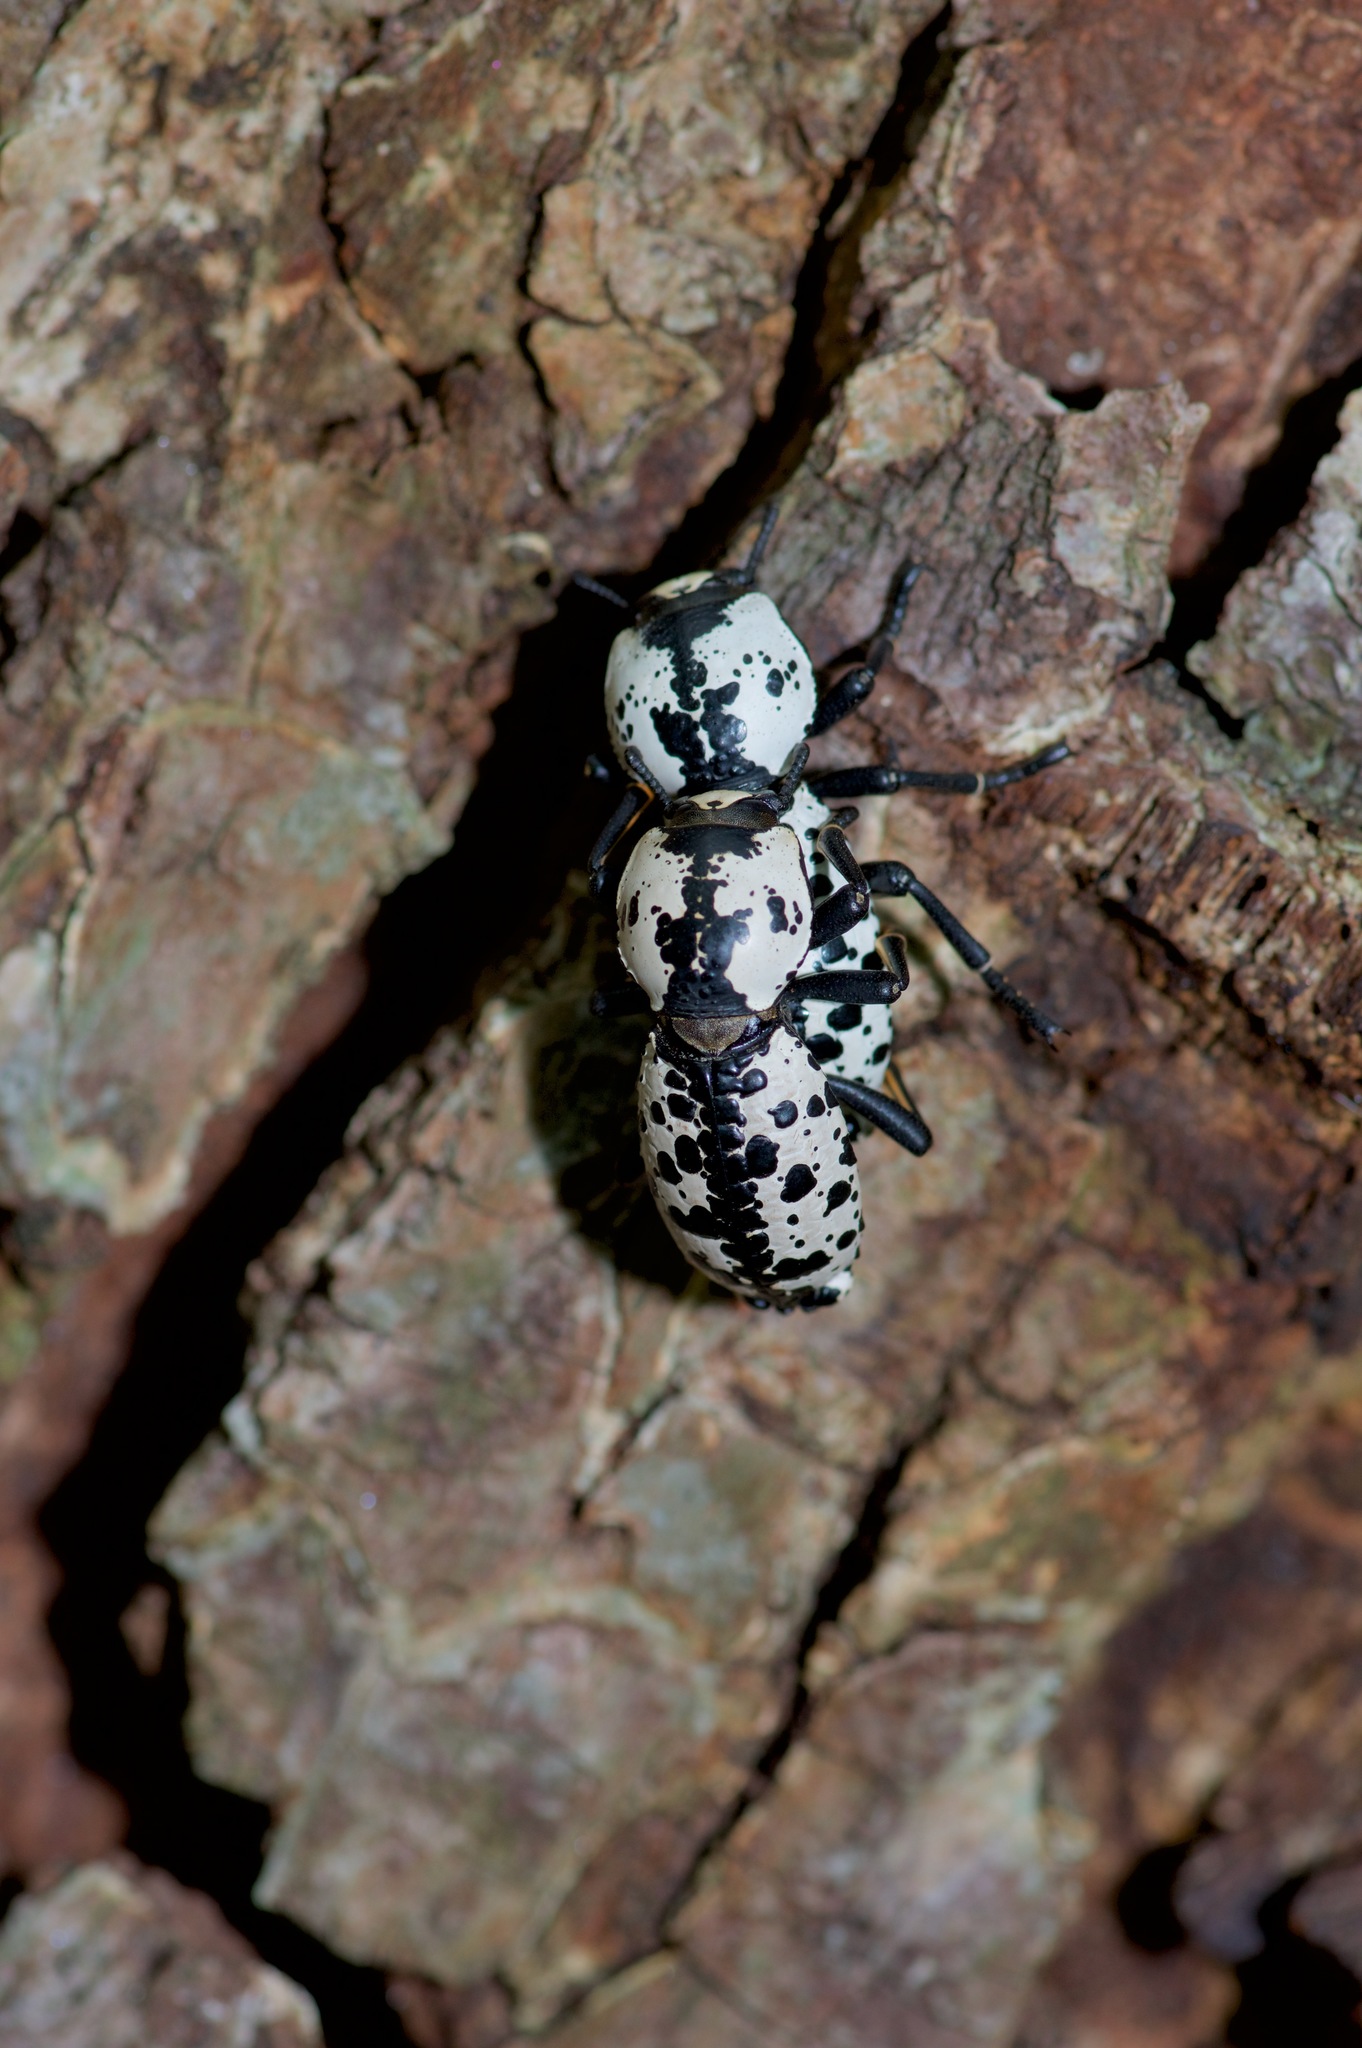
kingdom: Animalia
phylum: Arthropoda
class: Insecta
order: Coleoptera
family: Zopheridae
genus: Zopherus
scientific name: Zopherus nodulosus
